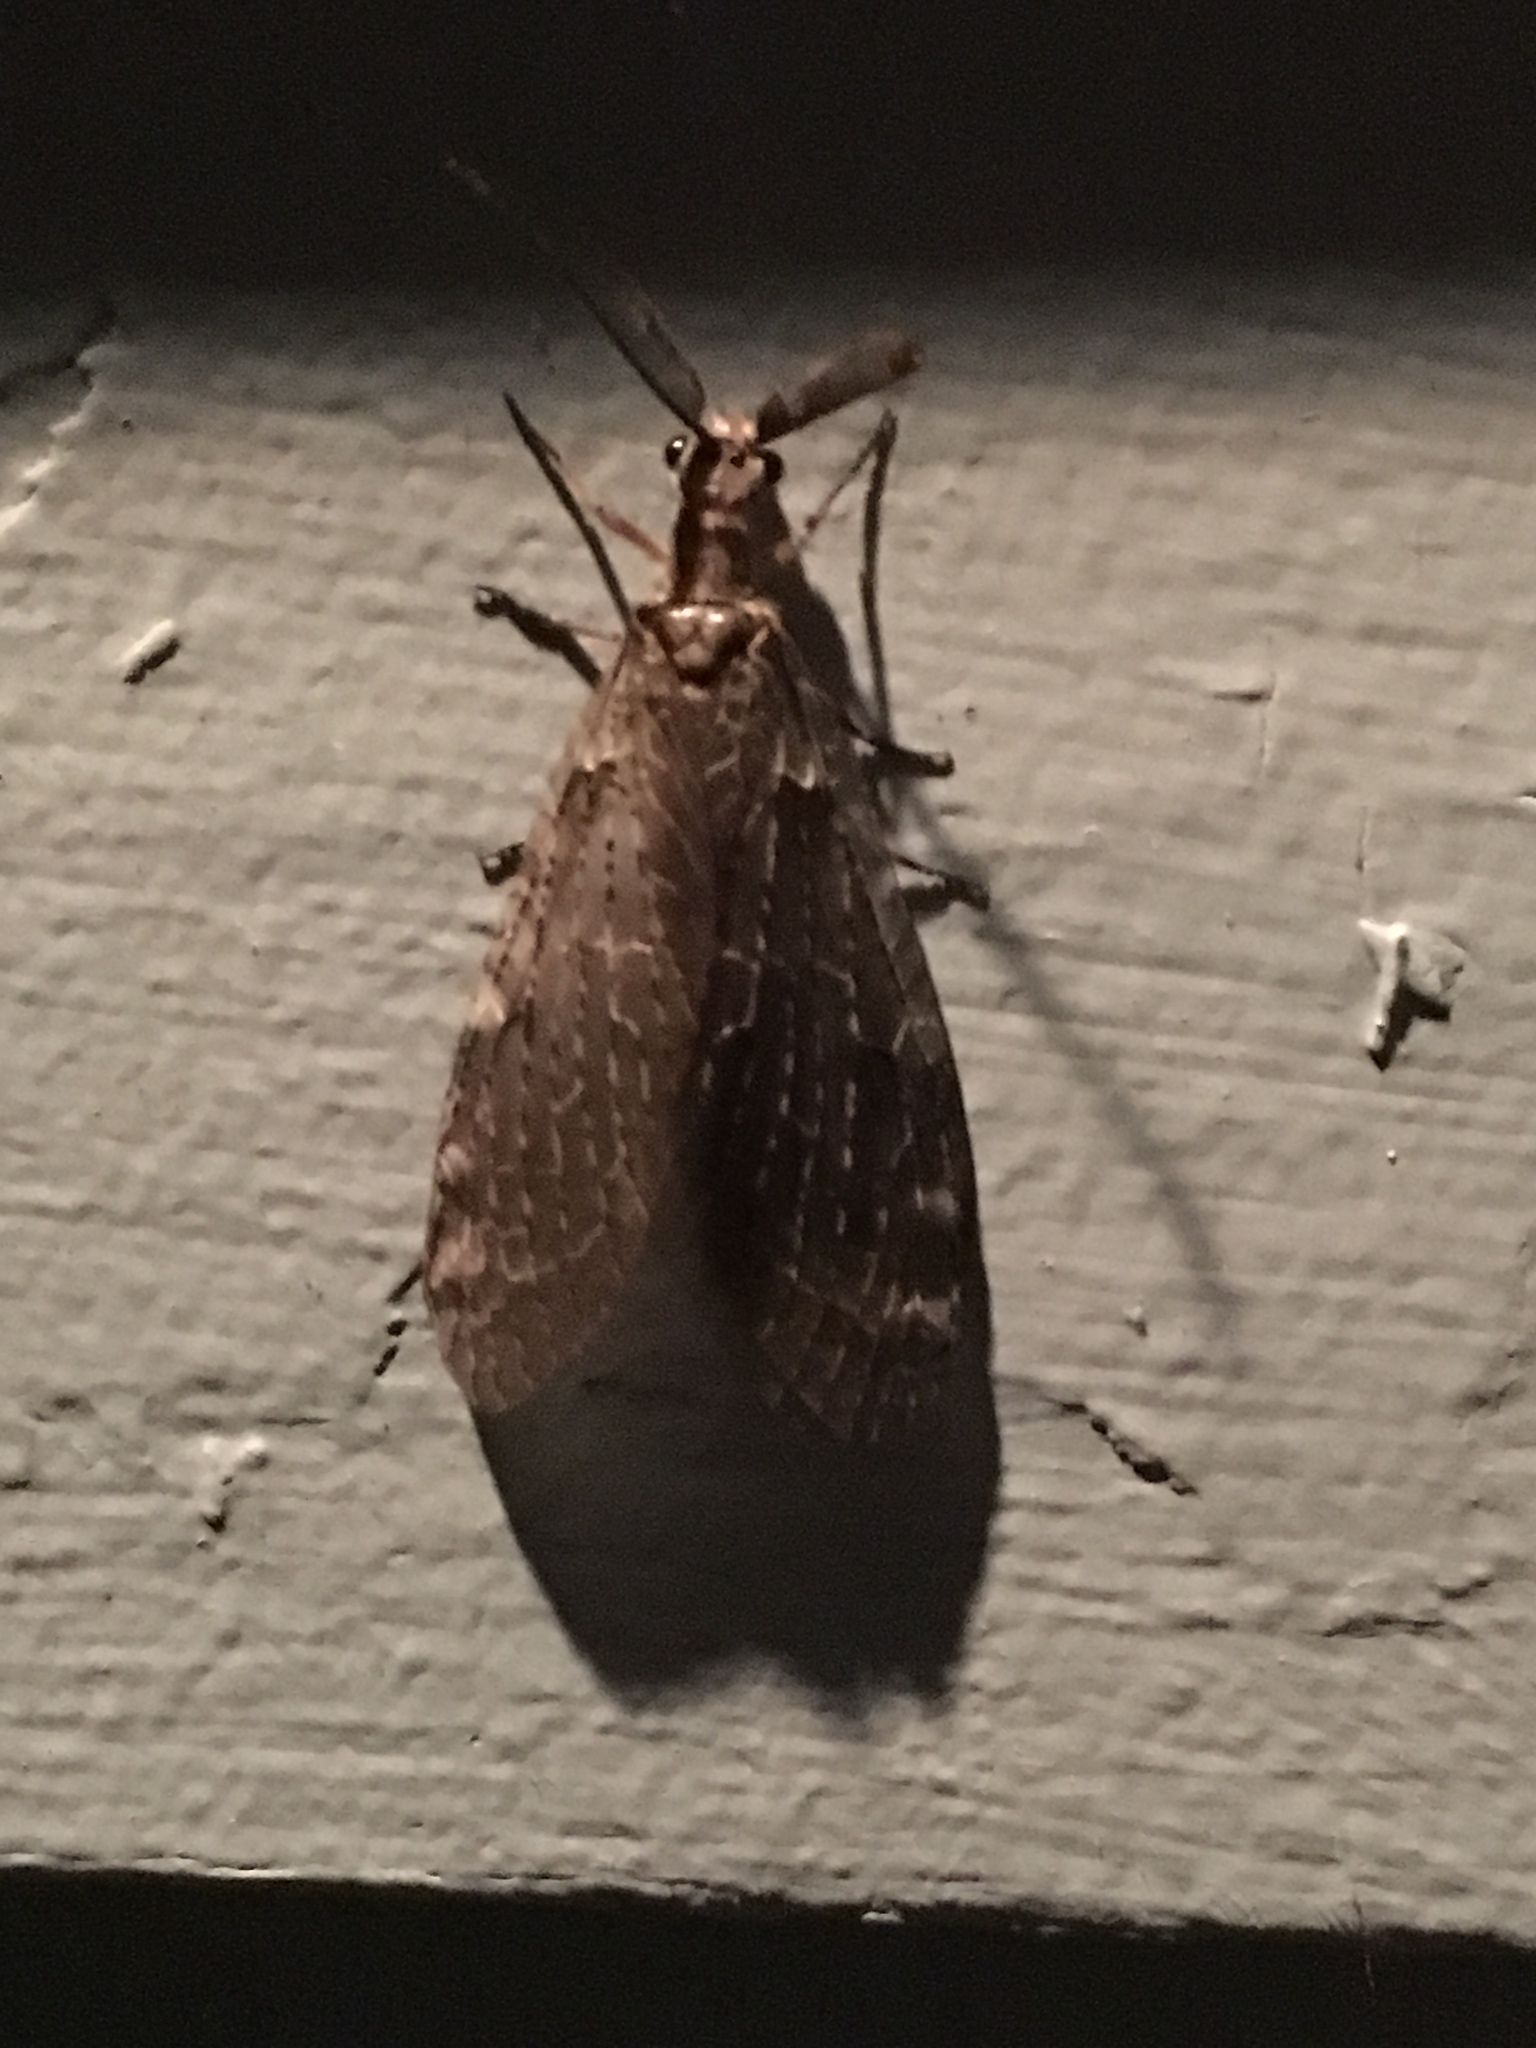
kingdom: Animalia
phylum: Arthropoda
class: Insecta
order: Megaloptera
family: Corydalidae
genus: Chauliodes
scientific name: Chauliodes rastricornis
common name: Spring fishfly
